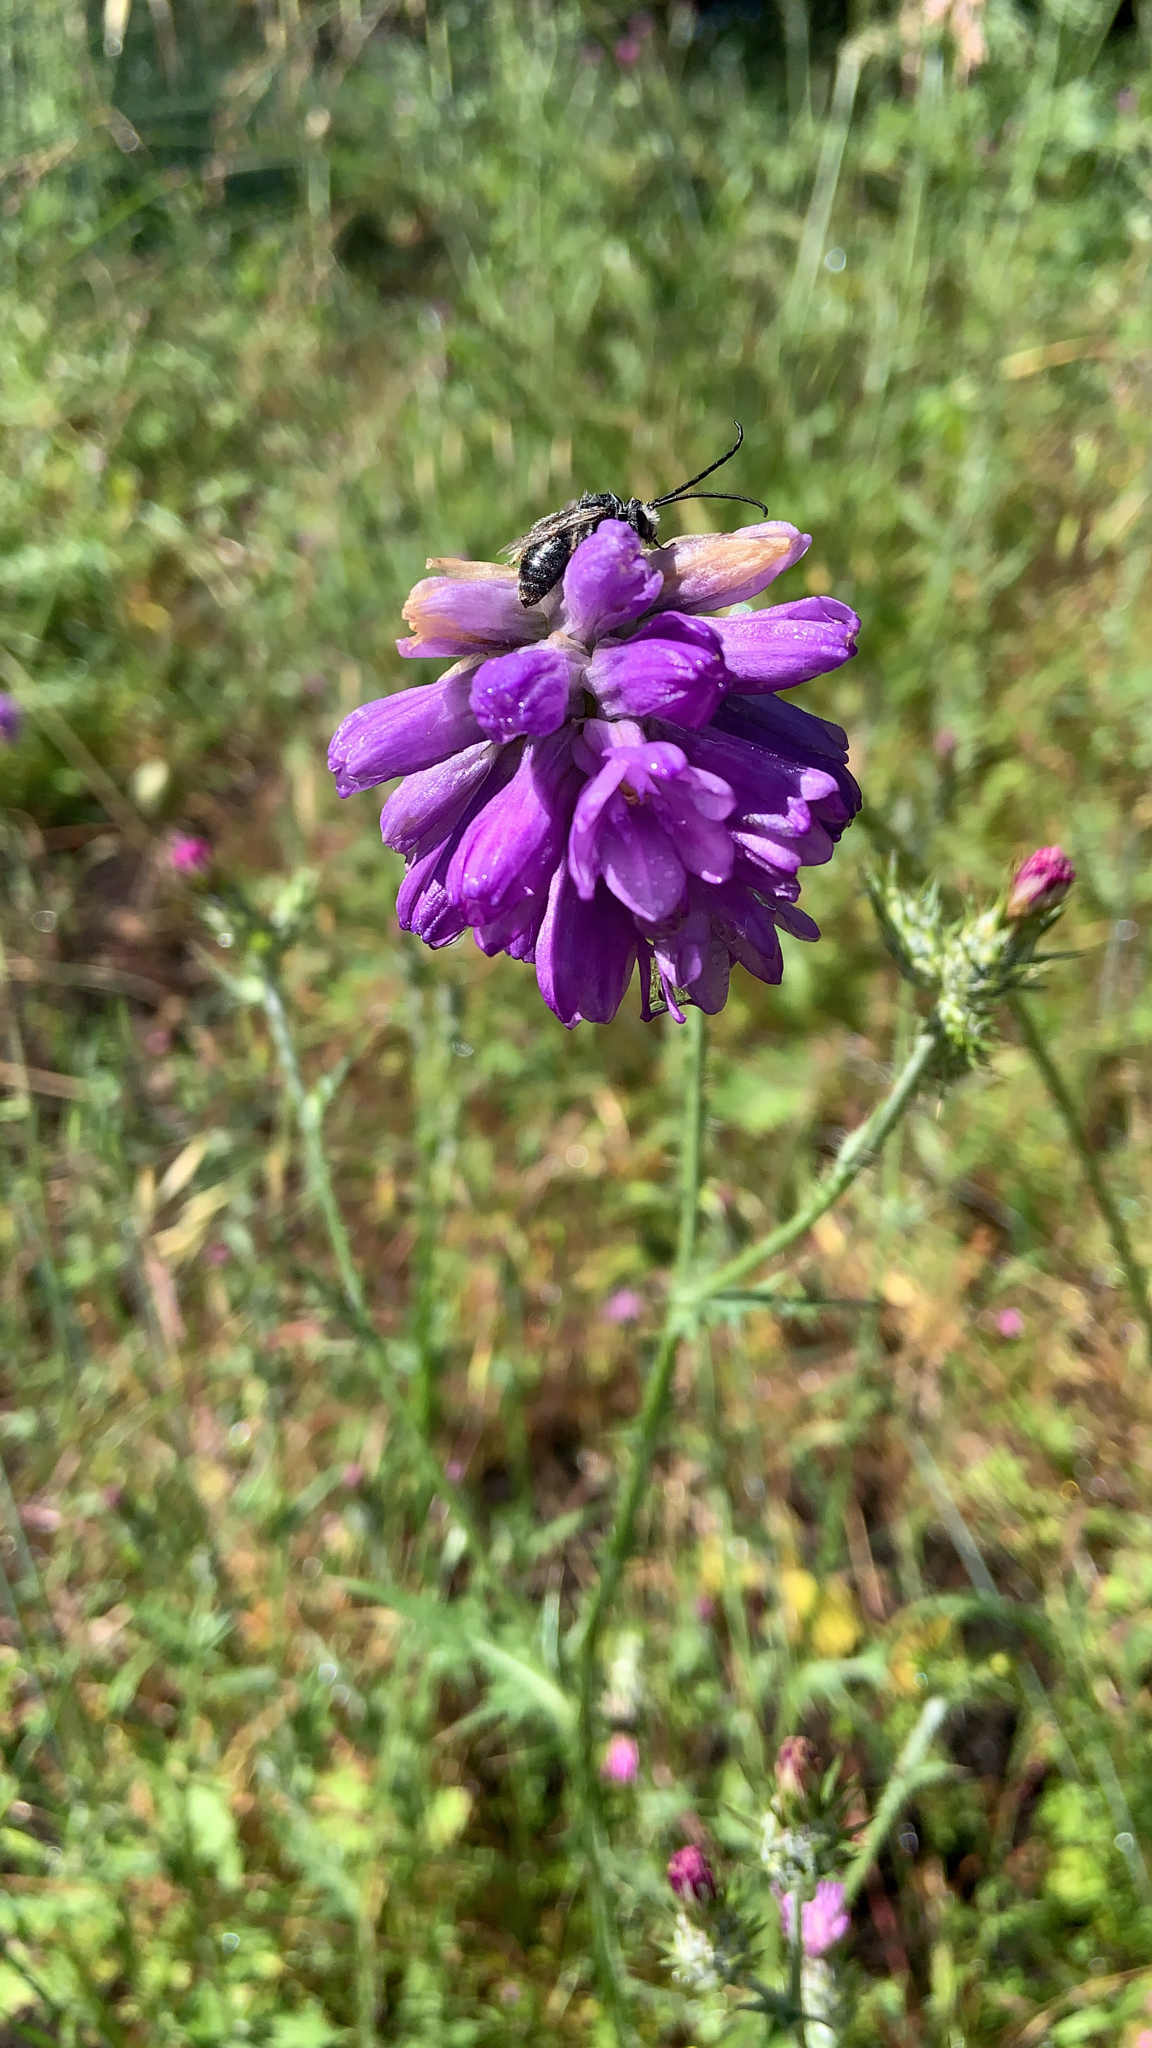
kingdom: Plantae
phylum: Tracheophyta
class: Liliopsida
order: Asparagales
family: Asparagaceae
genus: Dichelostemma
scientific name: Dichelostemma congestum
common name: Fork-tooth ookow
